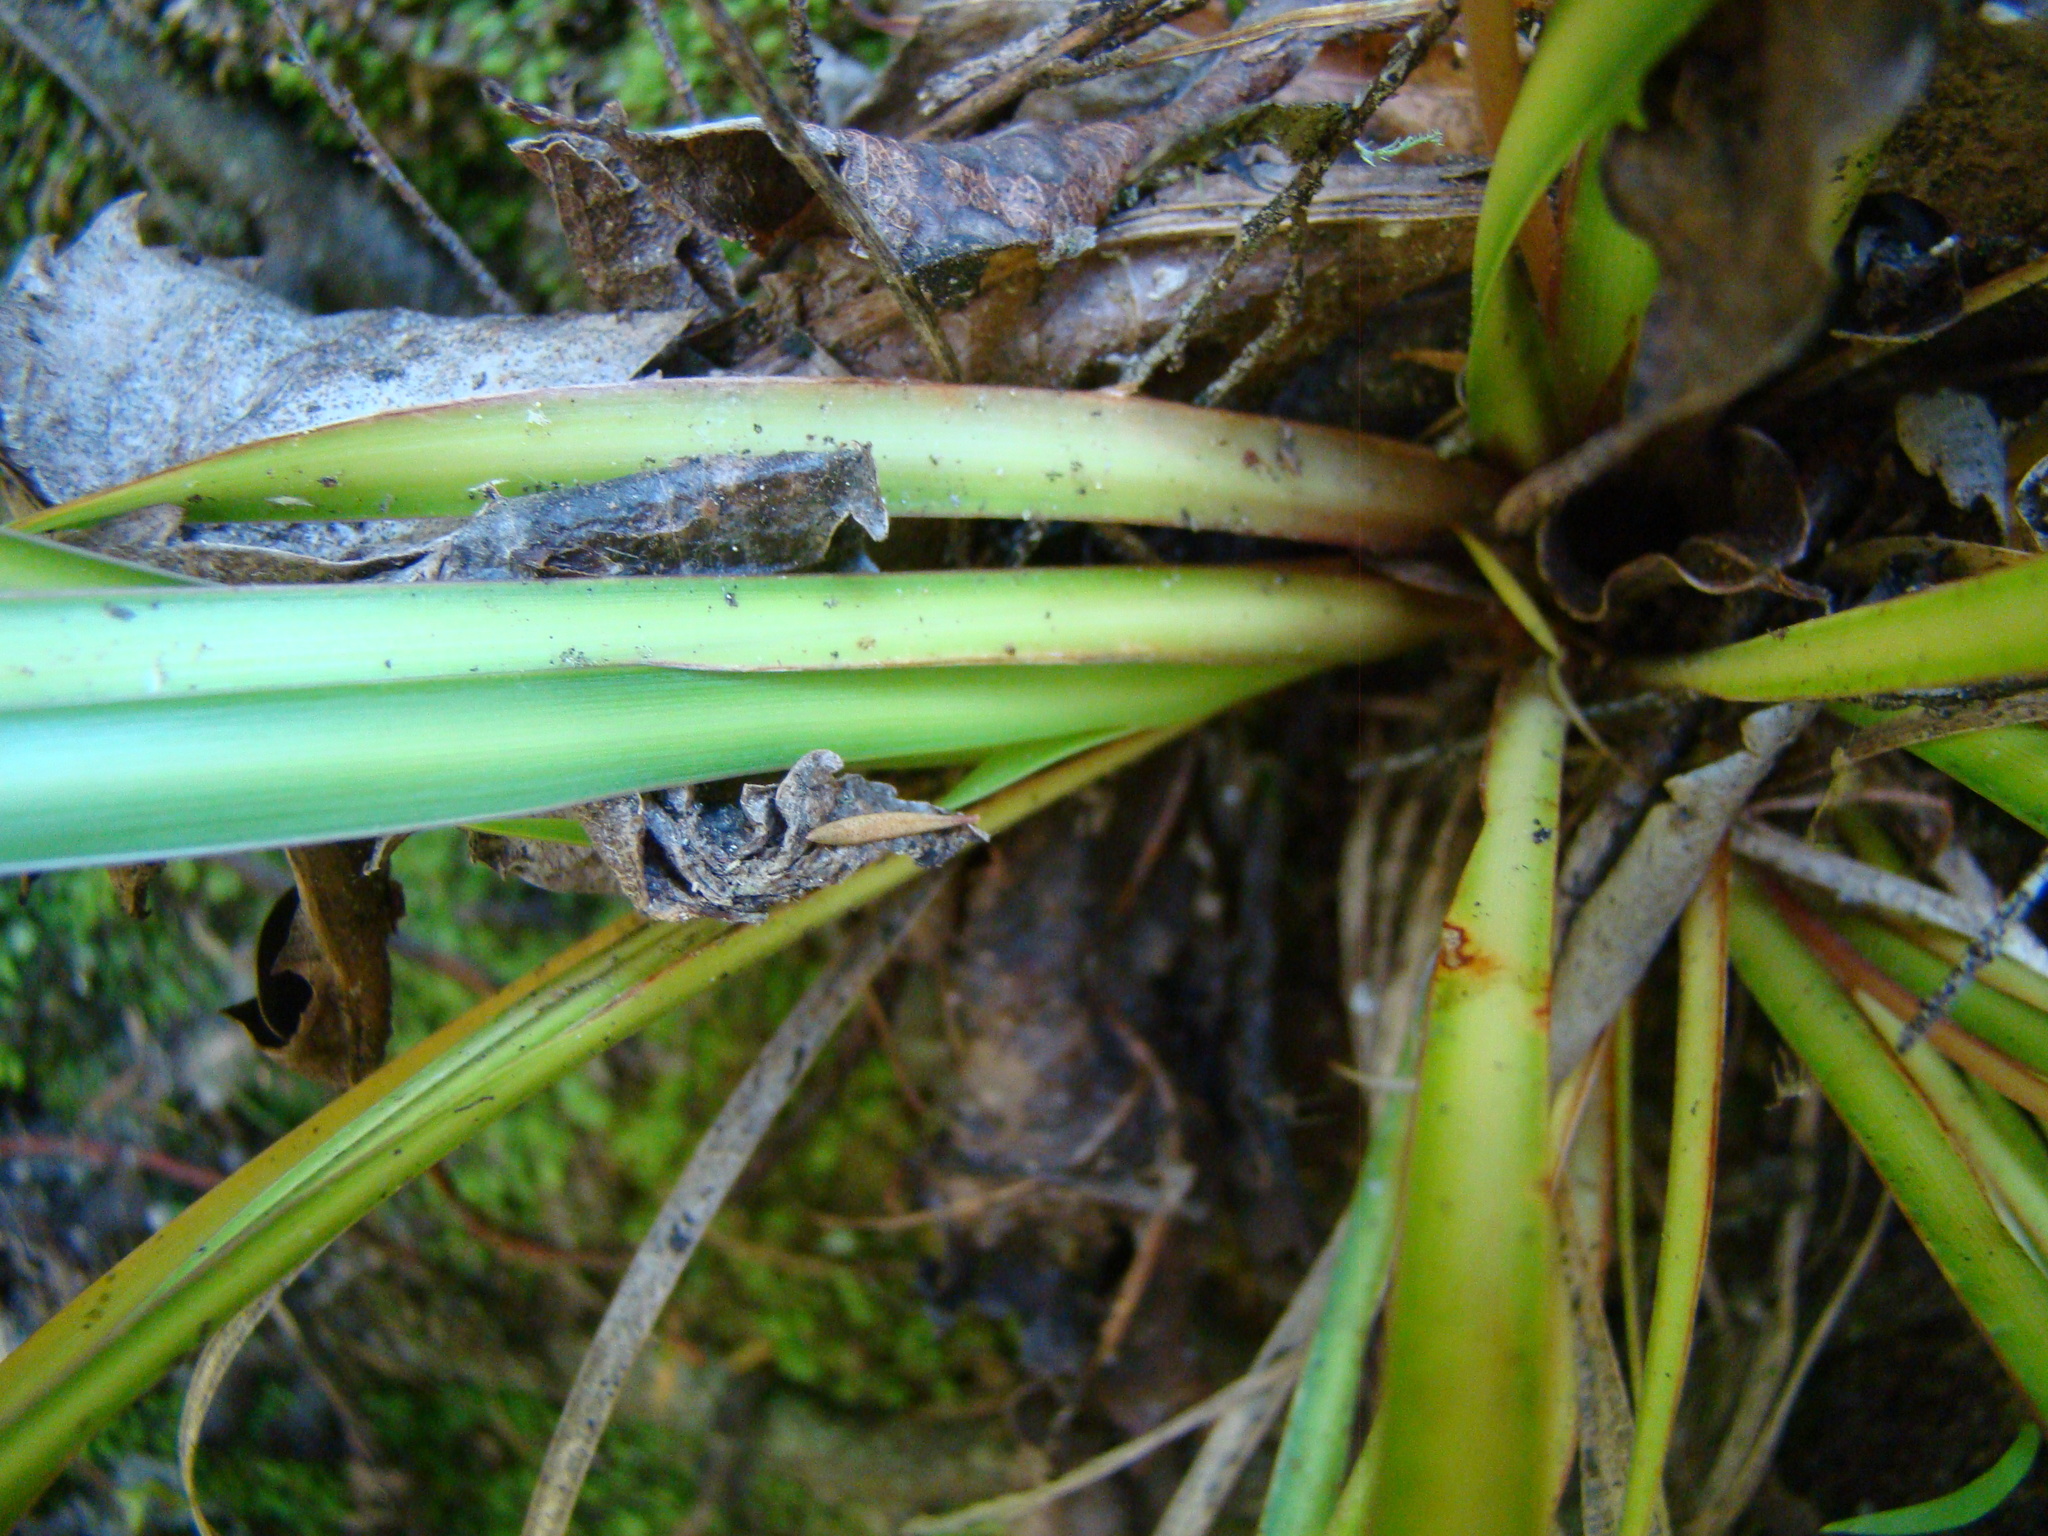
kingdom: Plantae
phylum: Tracheophyta
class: Liliopsida
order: Asparagales
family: Iridaceae
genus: Libertia
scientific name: Libertia ixioides
